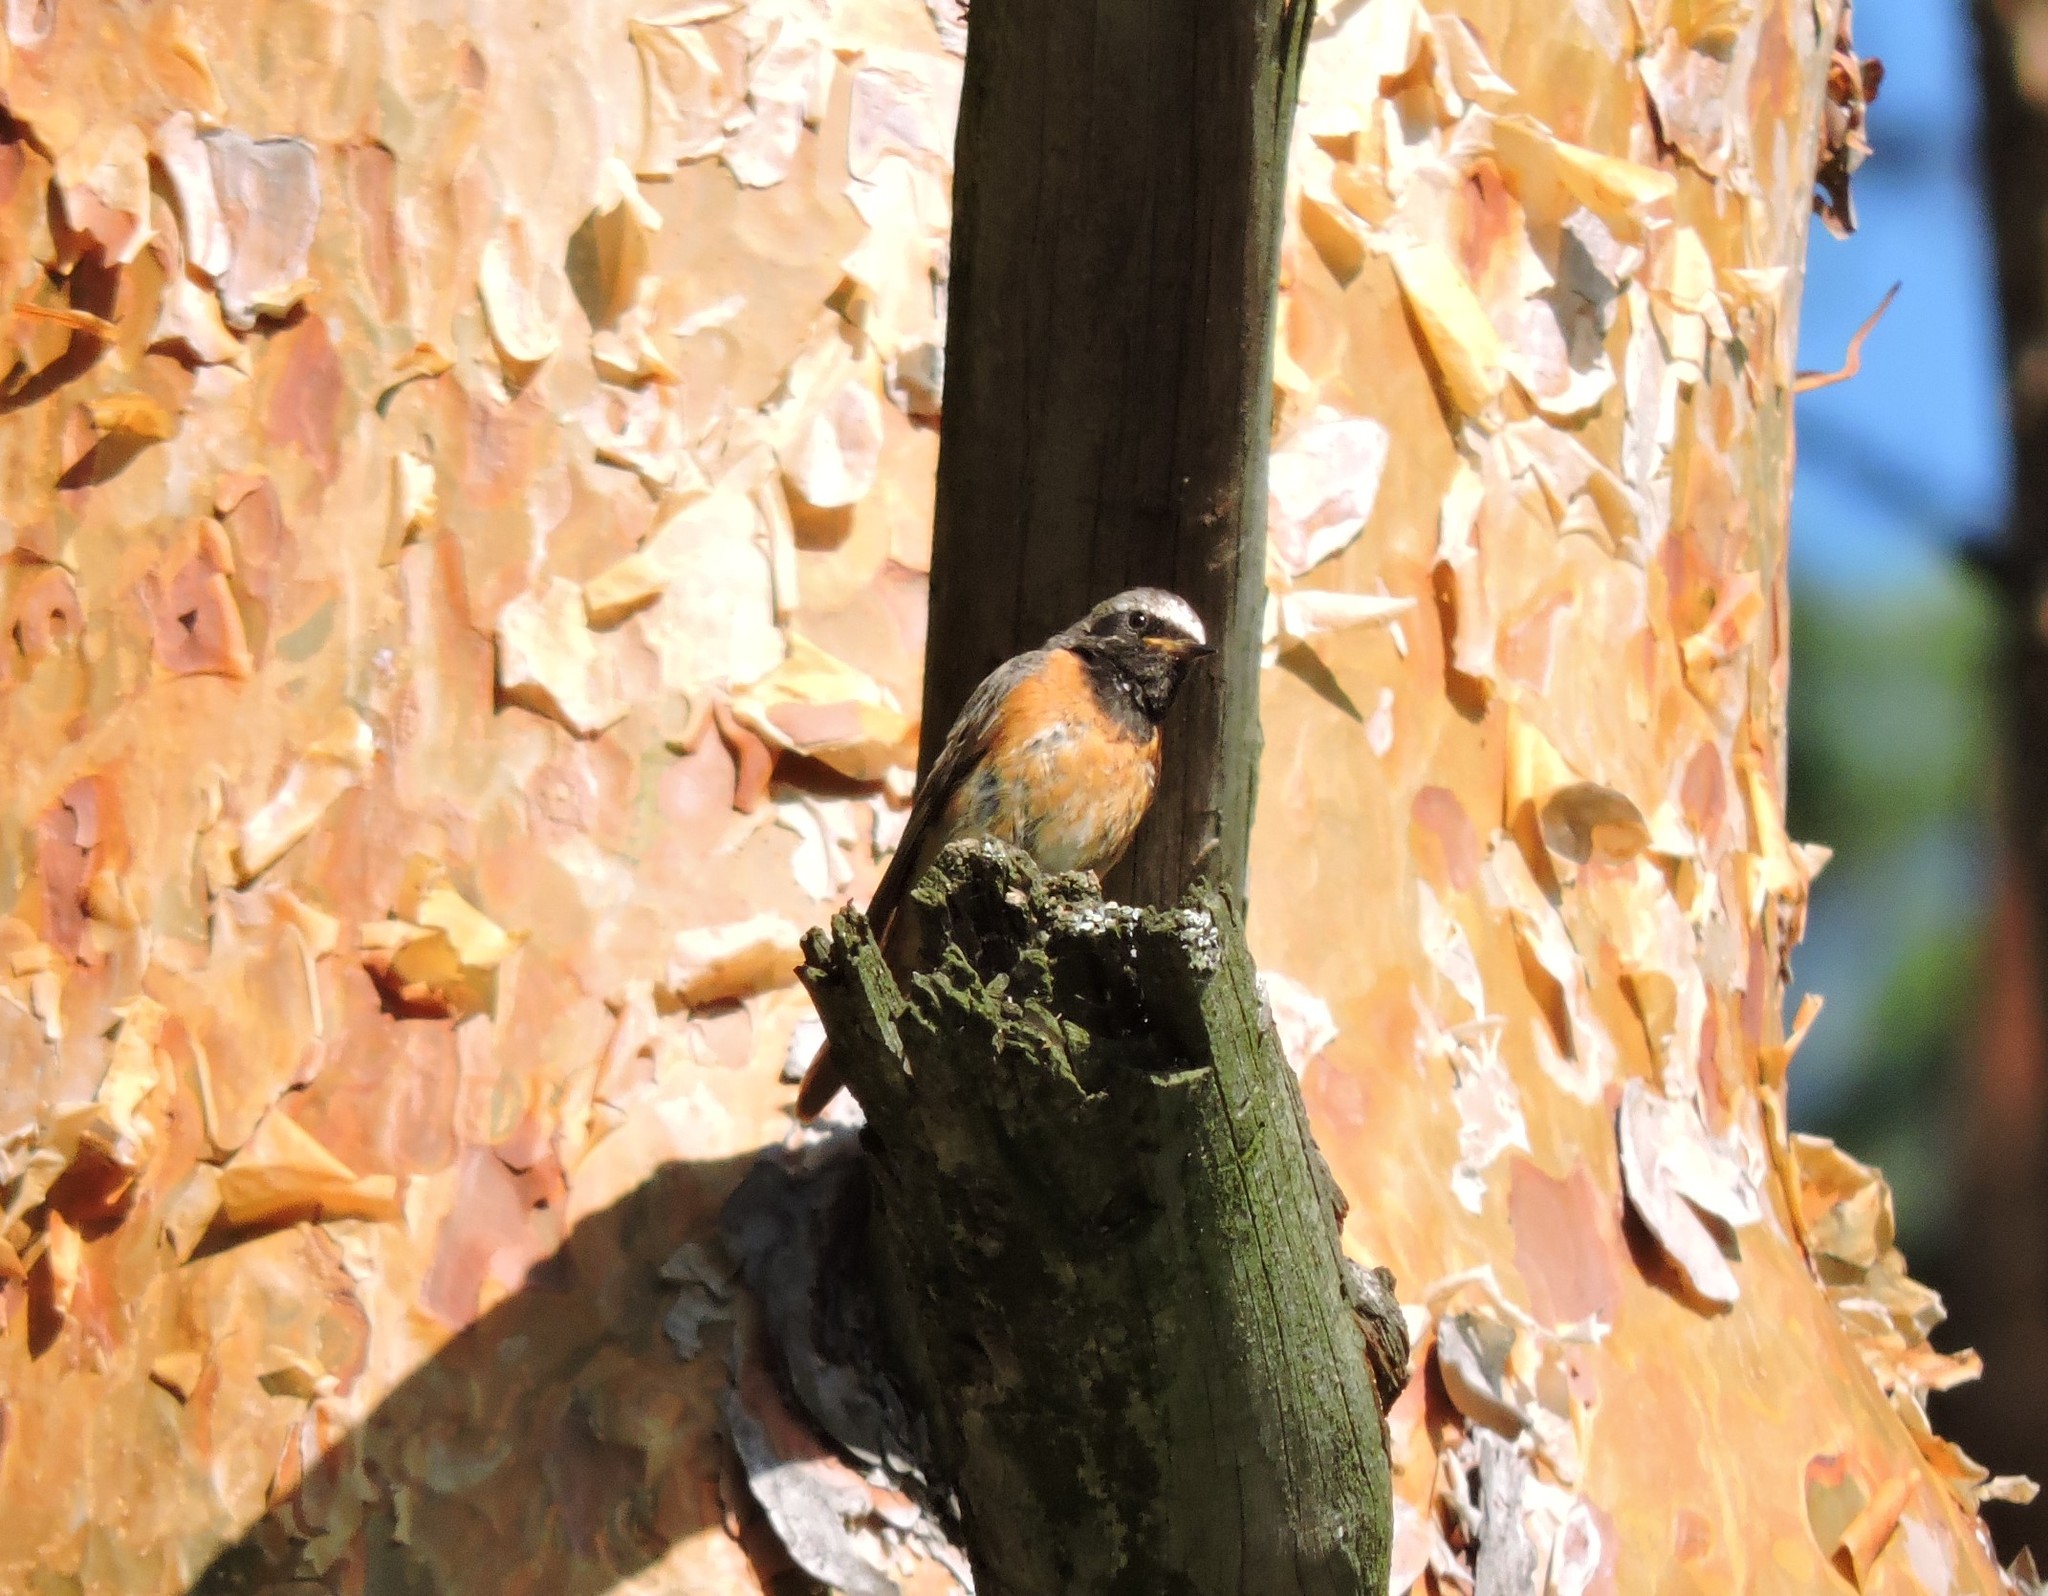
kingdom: Animalia
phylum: Chordata
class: Aves
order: Passeriformes
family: Muscicapidae
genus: Phoenicurus
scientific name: Phoenicurus phoenicurus
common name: Common redstart
